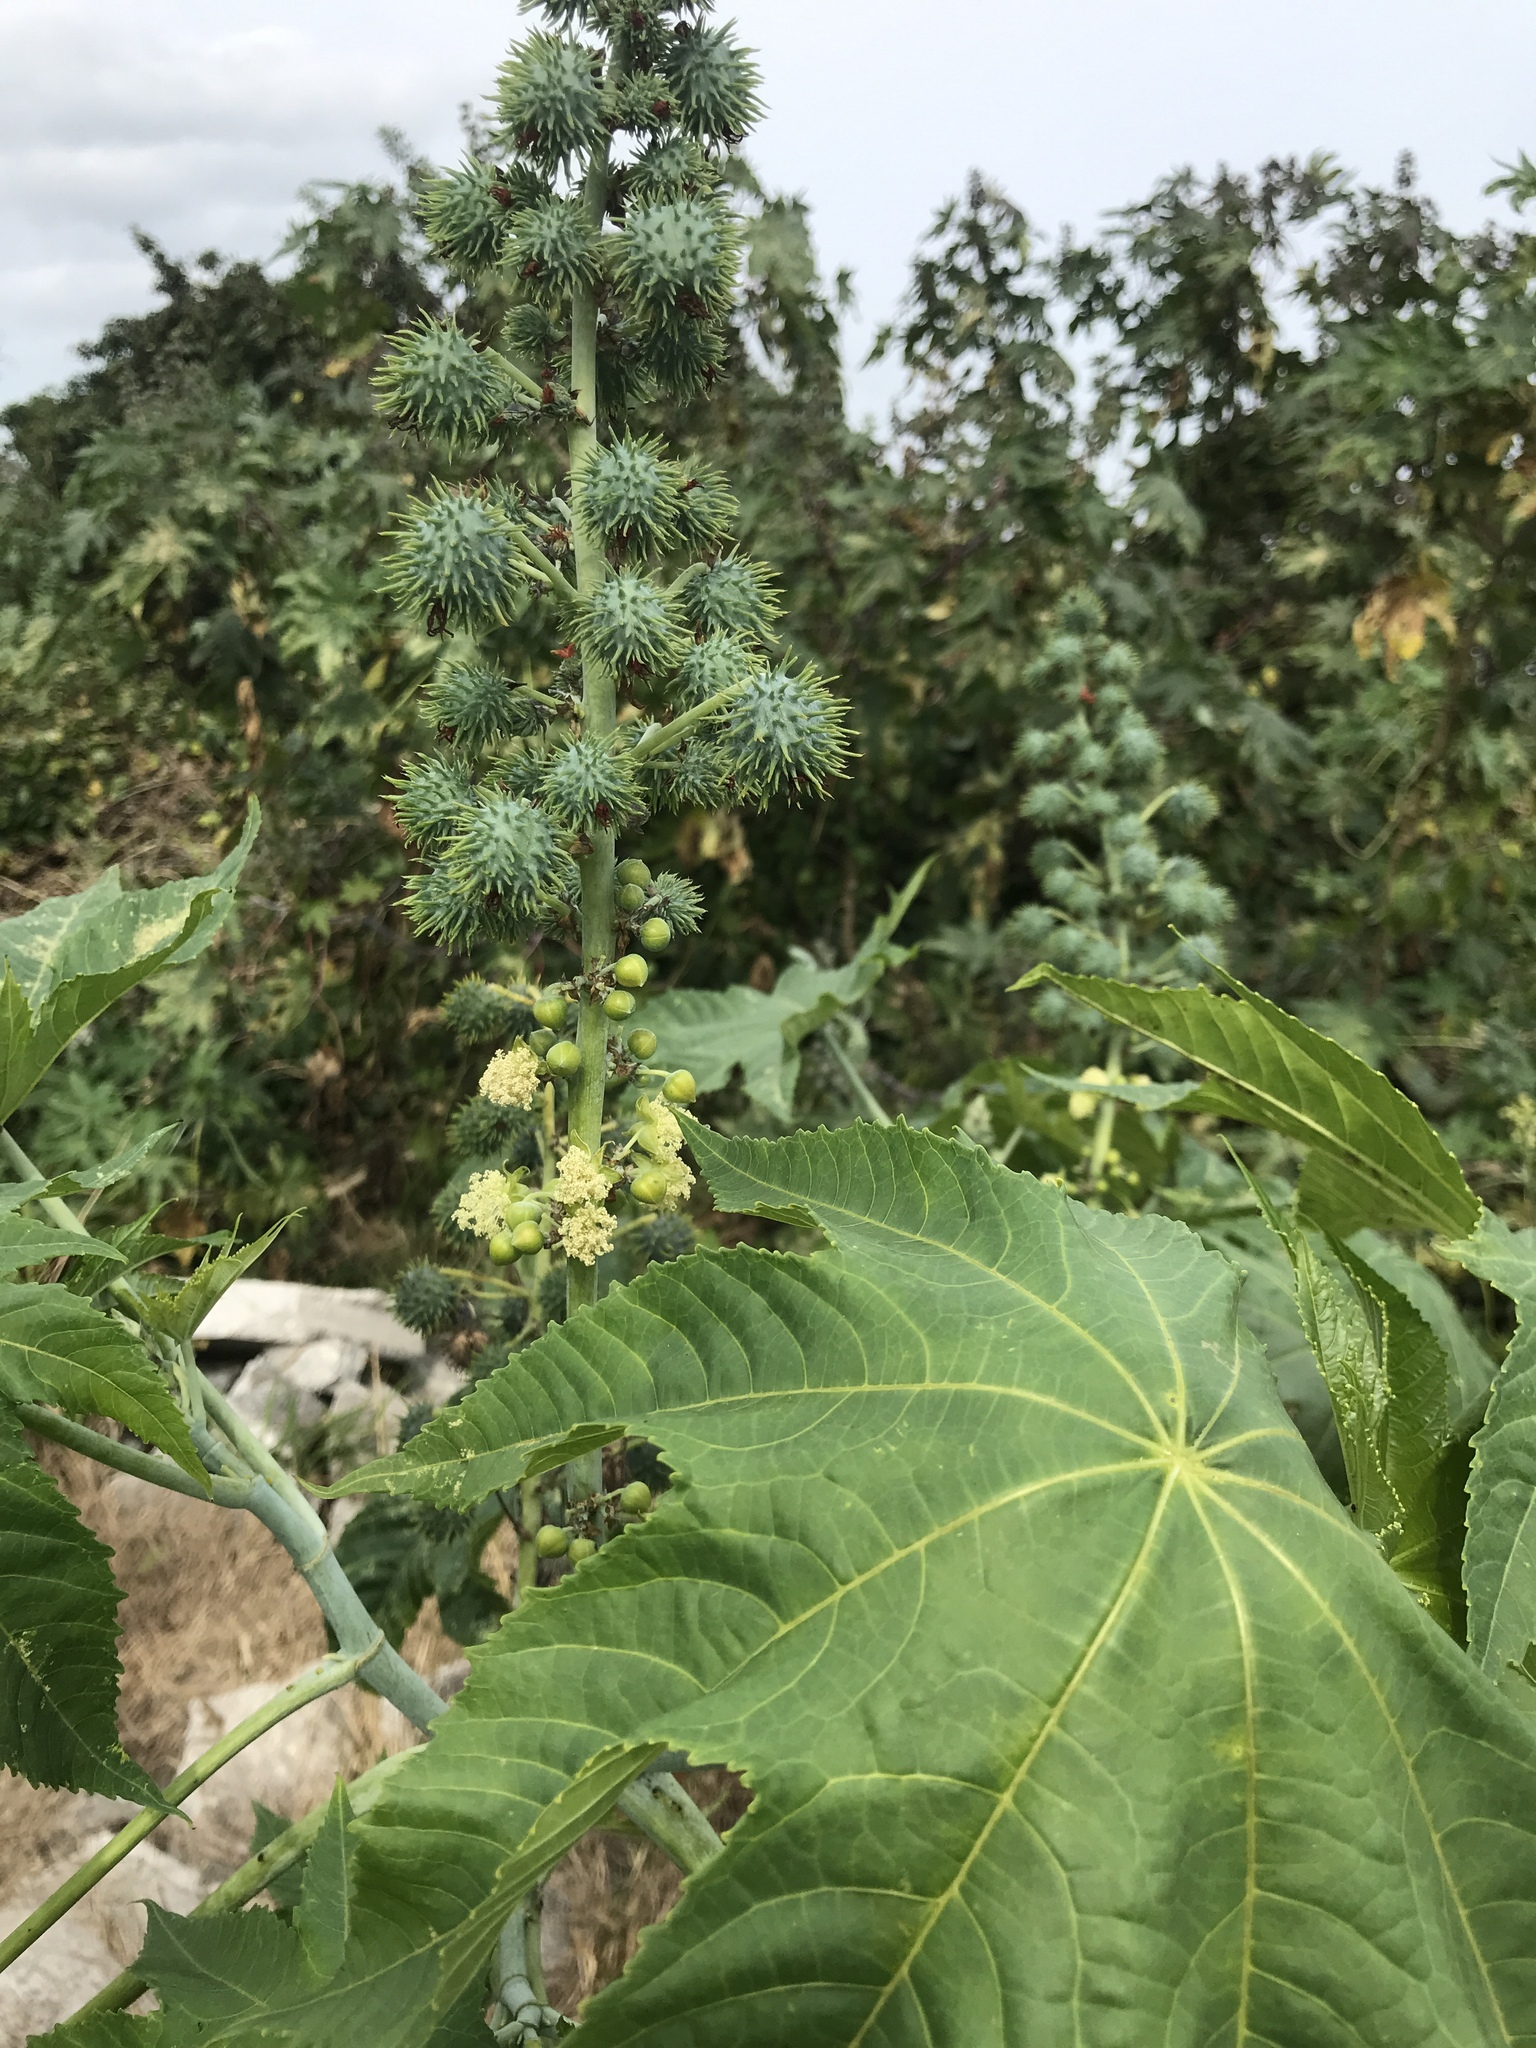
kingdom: Plantae
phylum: Tracheophyta
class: Magnoliopsida
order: Malpighiales
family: Euphorbiaceae
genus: Ricinus
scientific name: Ricinus communis
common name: Castor-oil-plant
